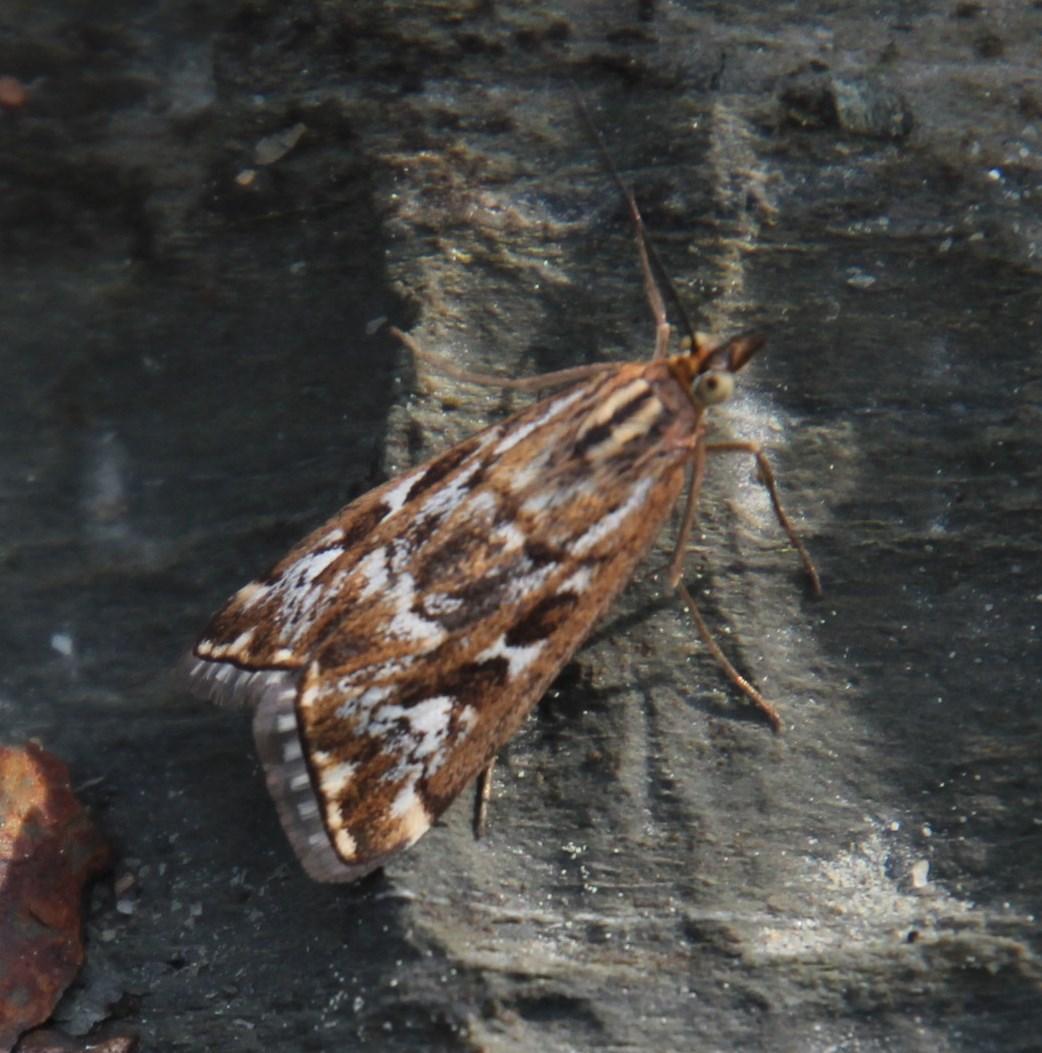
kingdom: Animalia
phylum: Arthropoda
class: Insecta
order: Lepidoptera
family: Crambidae
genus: Loxostege
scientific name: Loxostege frustalis
